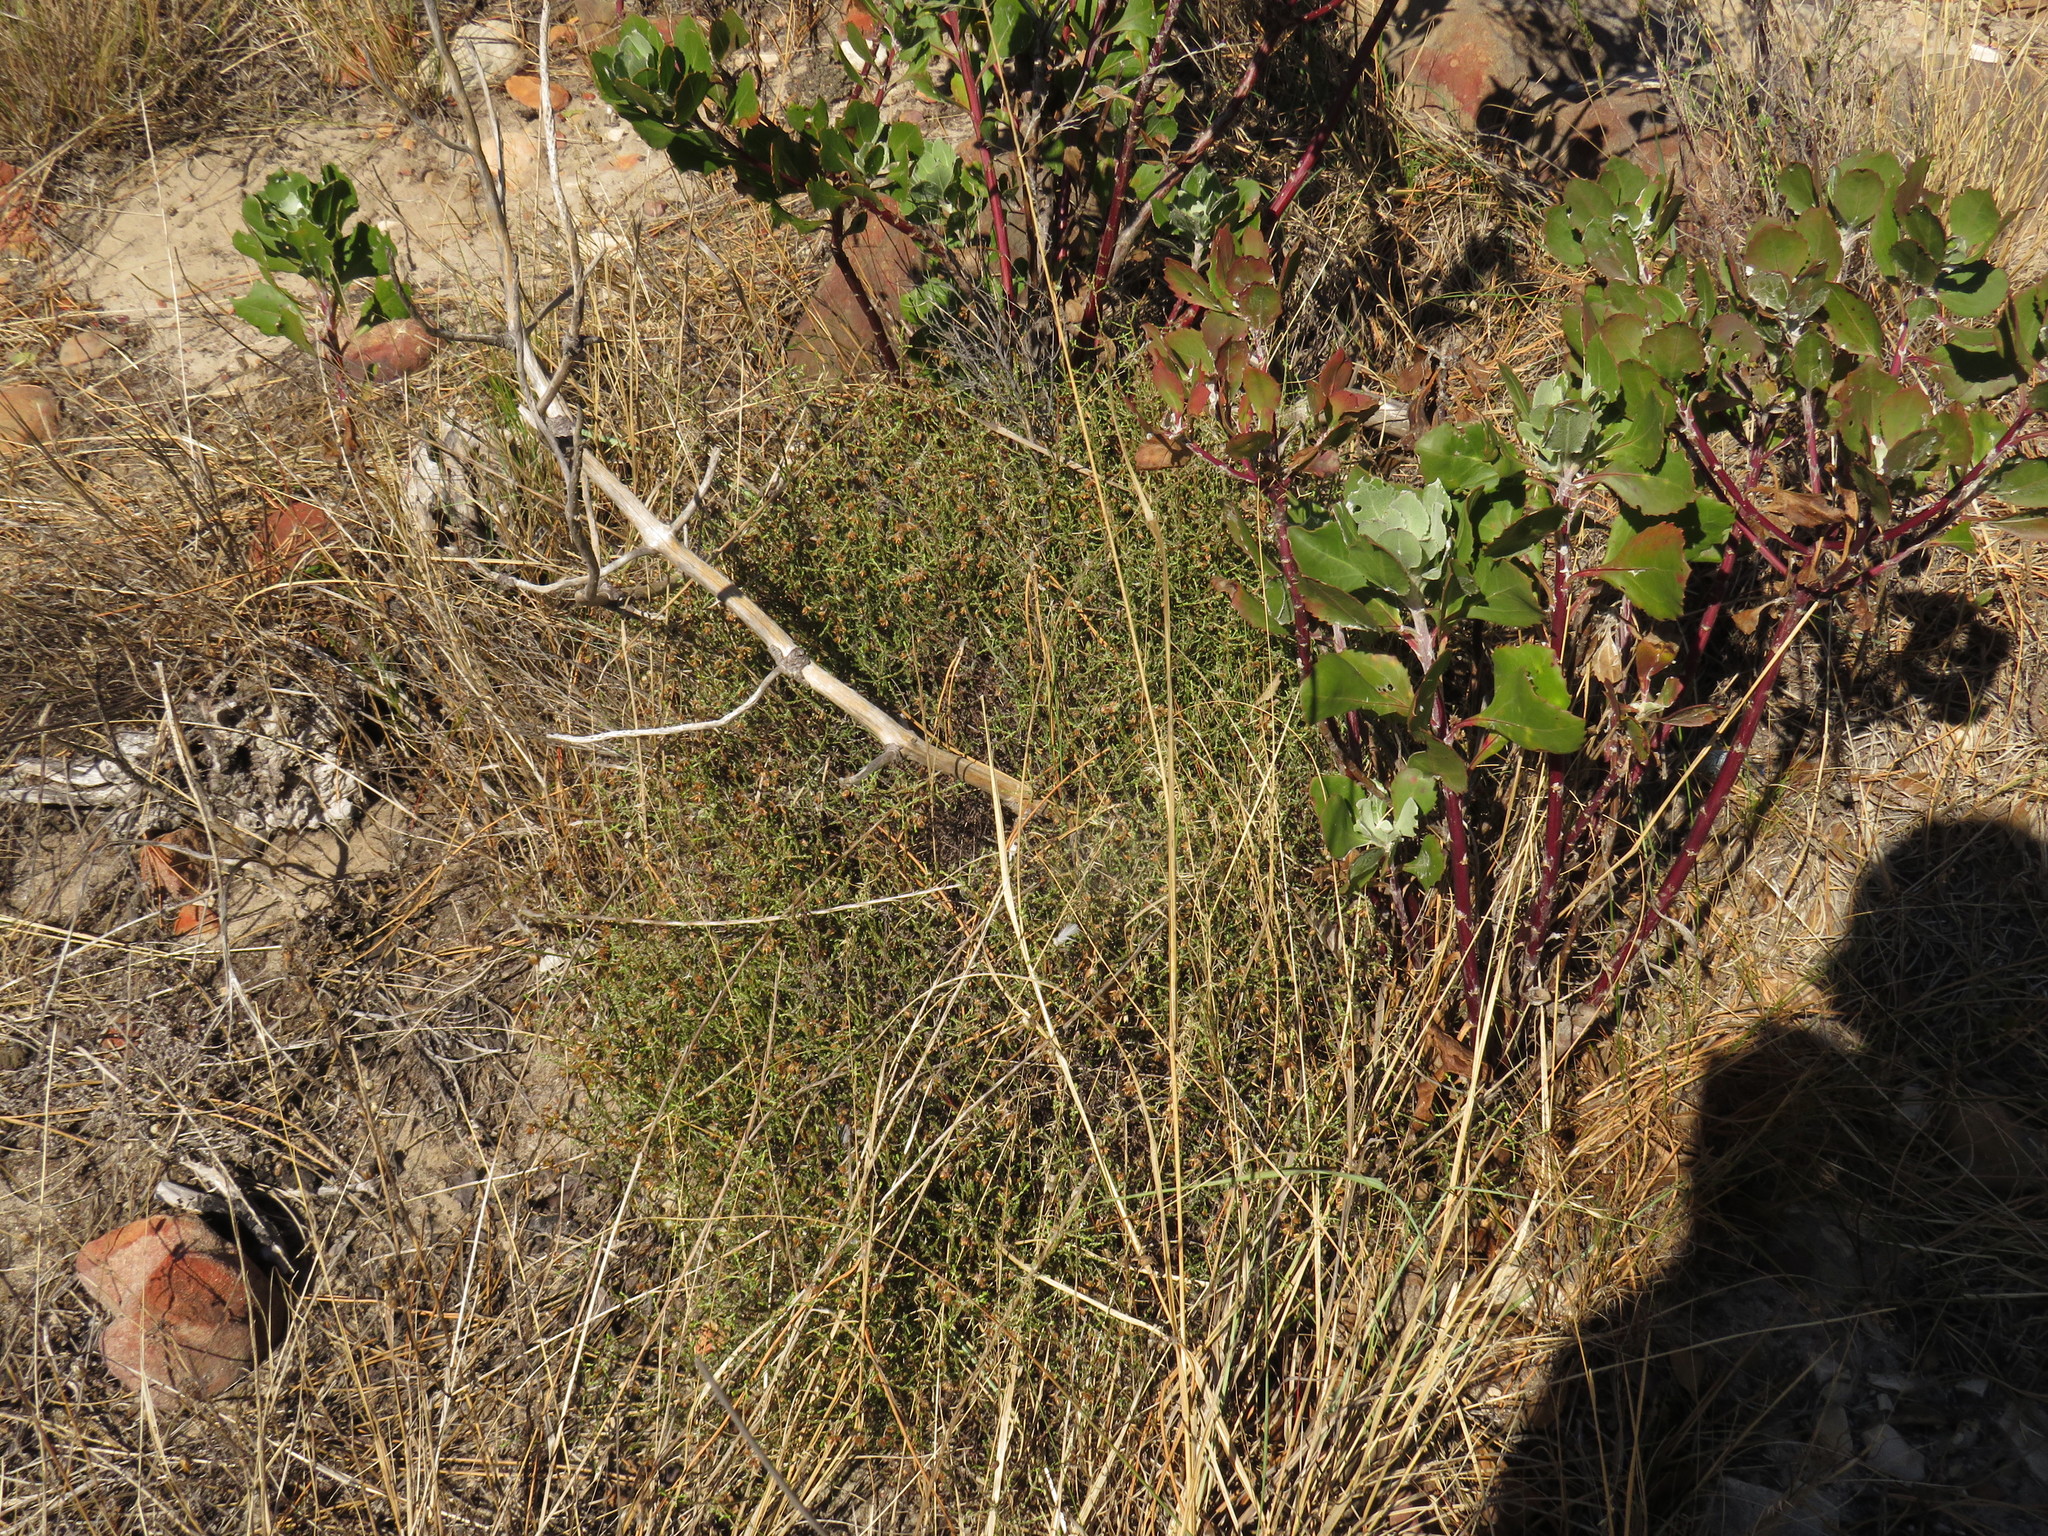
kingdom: Plantae
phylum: Tracheophyta
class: Magnoliopsida
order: Asterales
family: Asteraceae
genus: Myrovernix
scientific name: Myrovernix scaber
